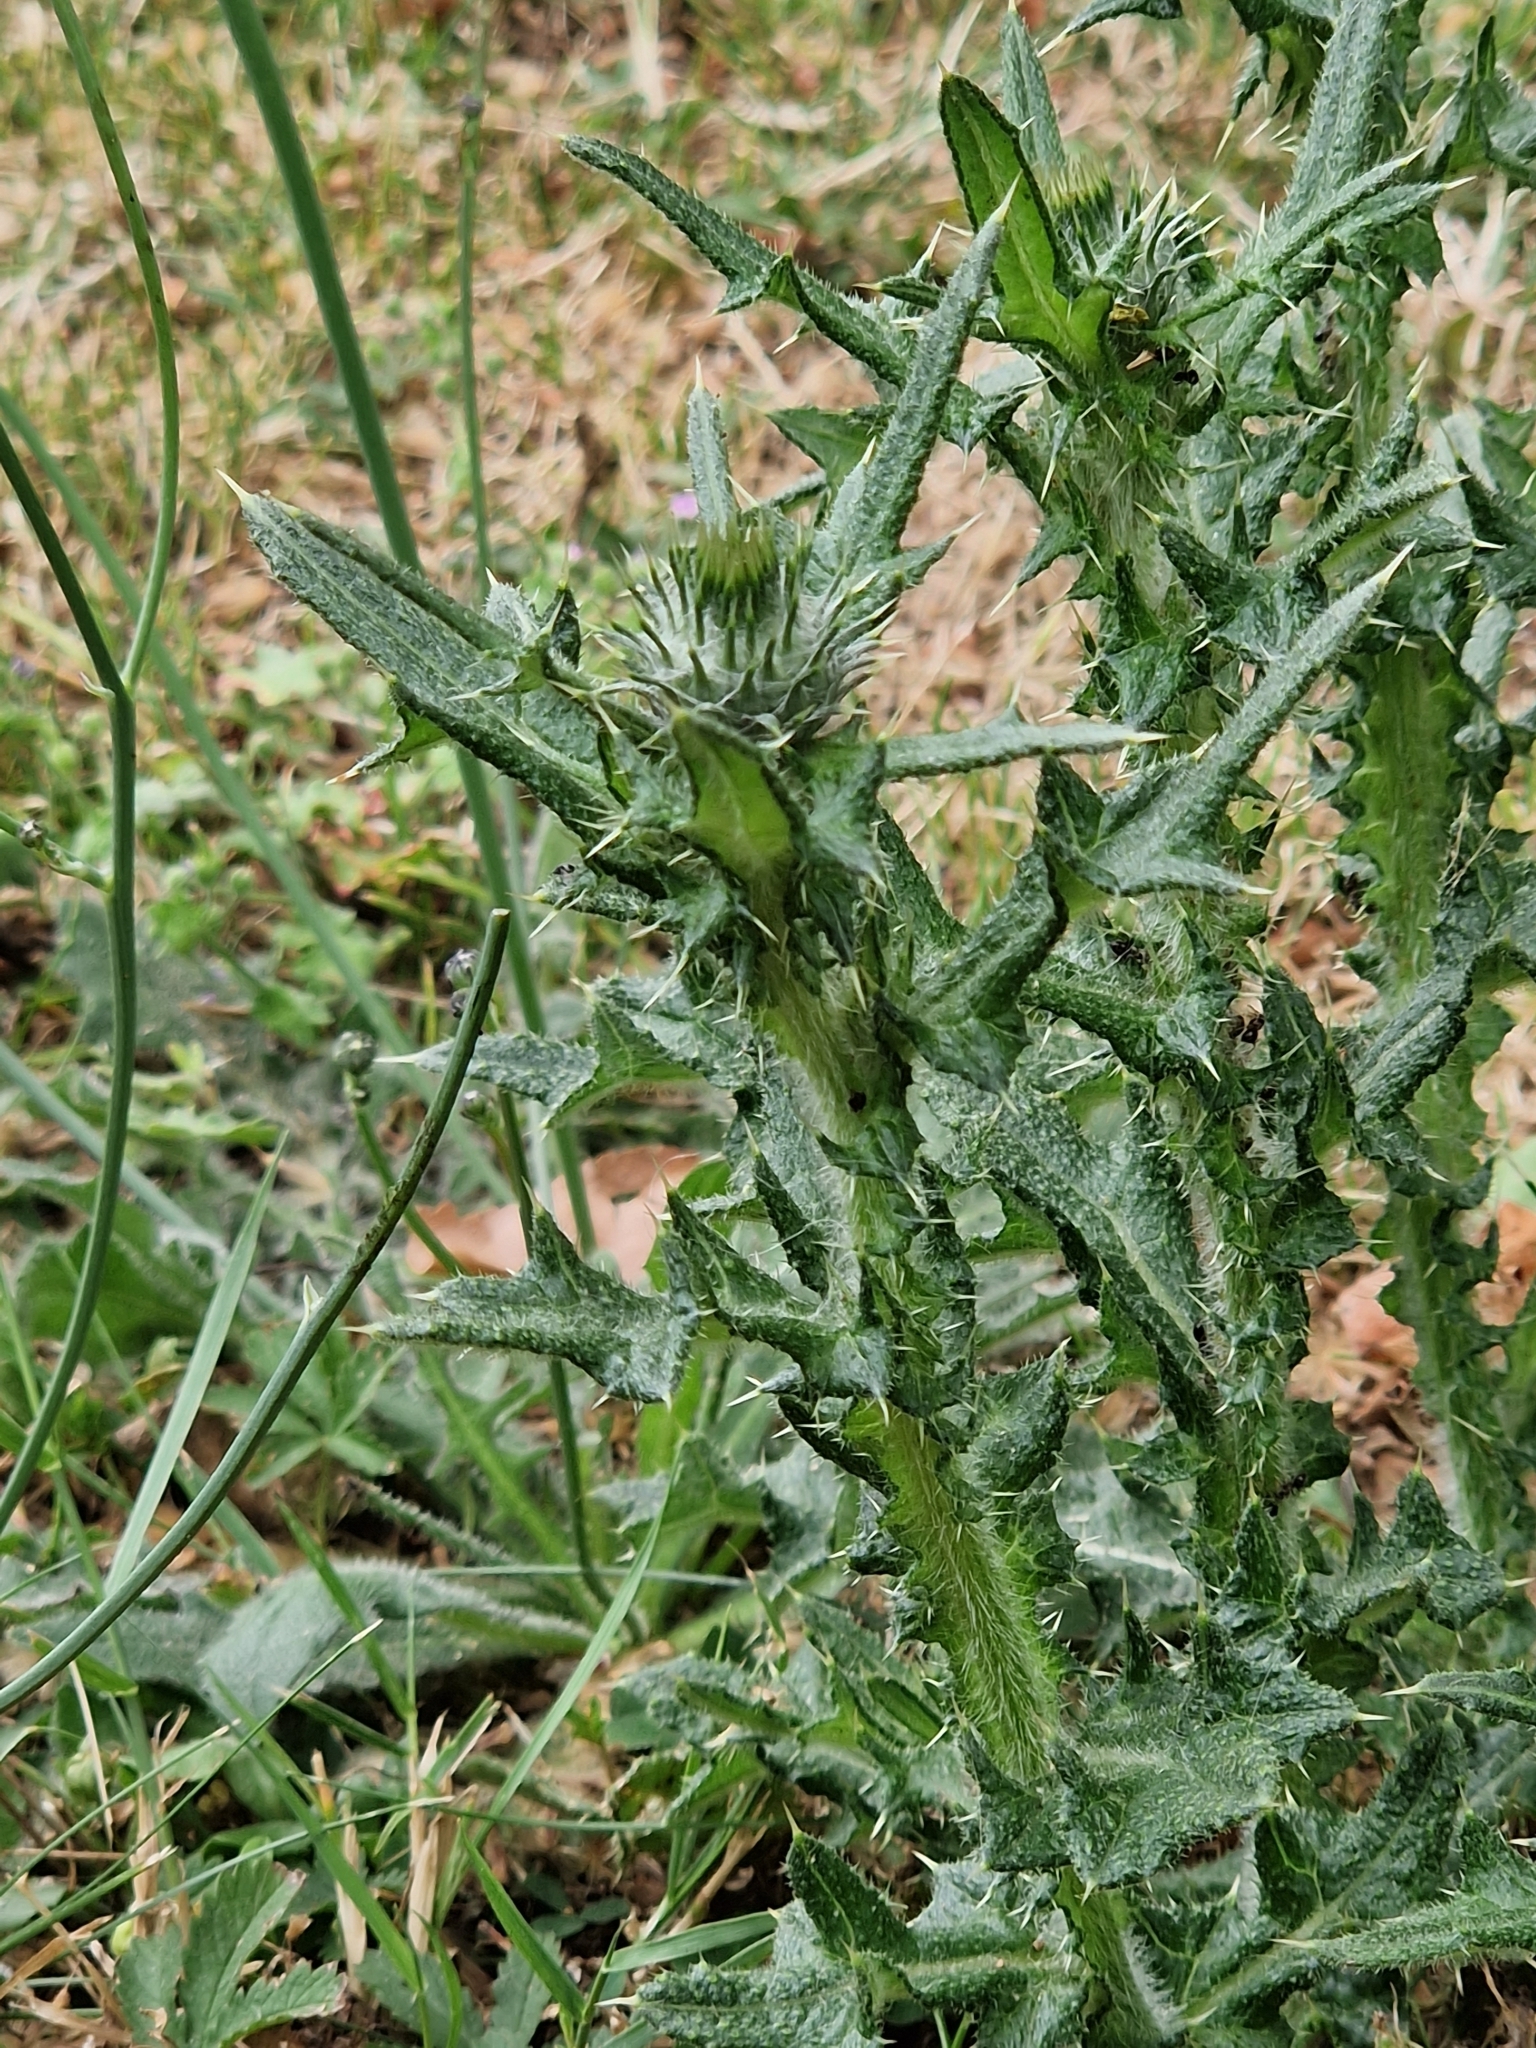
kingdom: Plantae
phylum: Tracheophyta
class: Magnoliopsida
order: Asterales
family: Asteraceae
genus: Cirsium
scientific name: Cirsium vulgare
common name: Bull thistle
